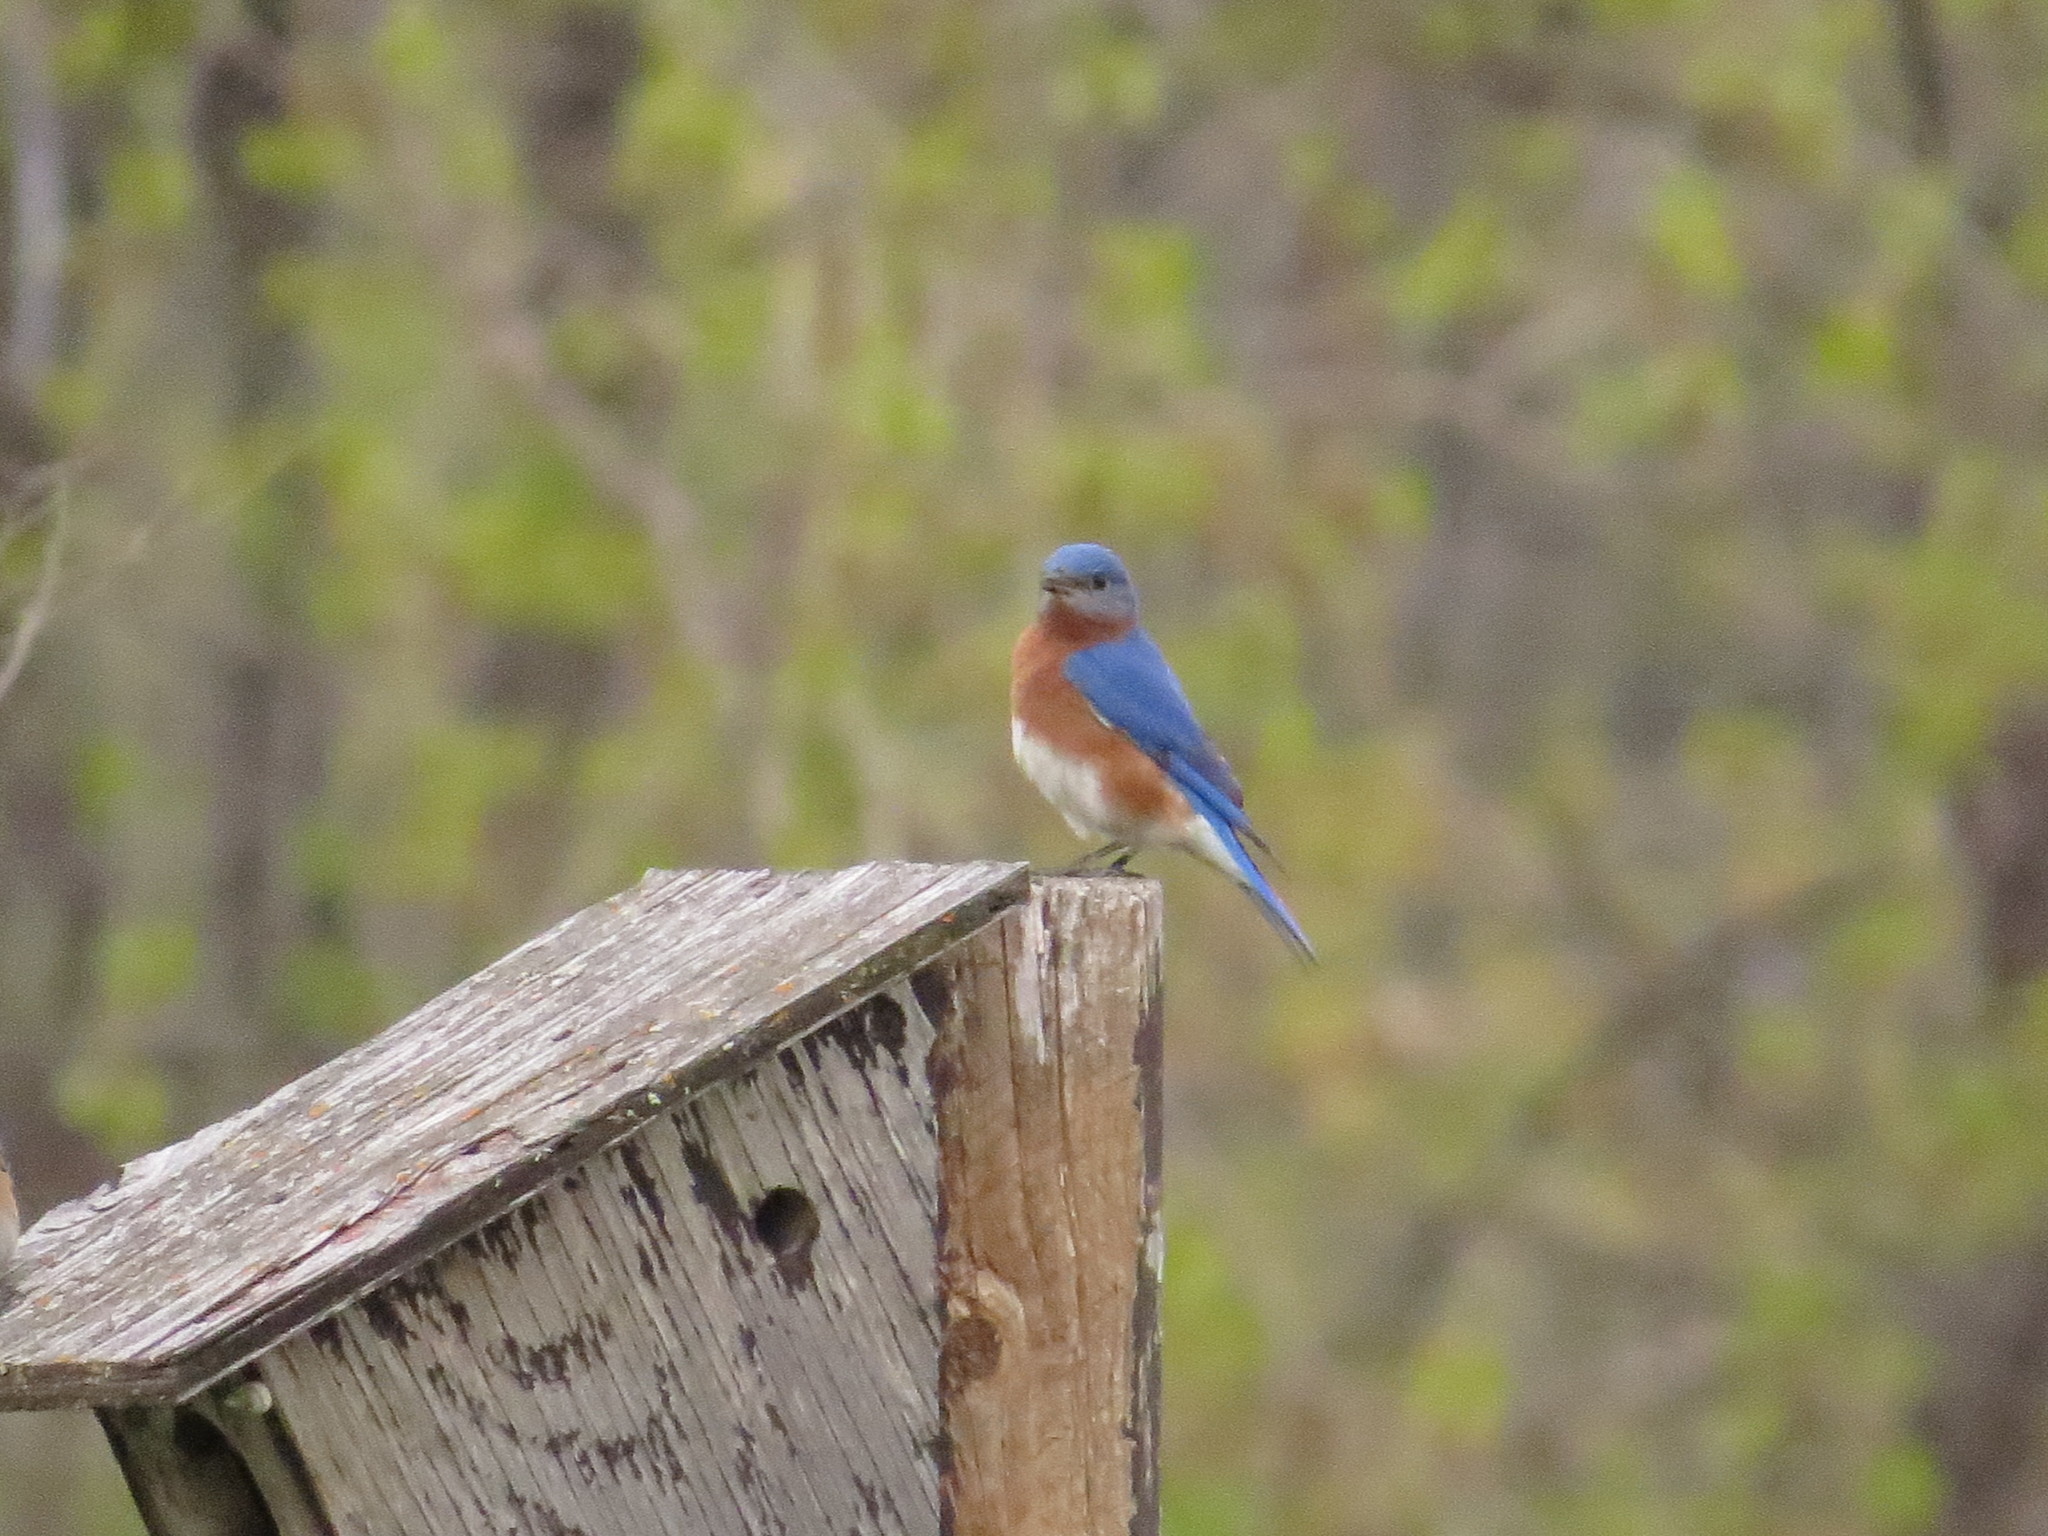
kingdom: Animalia
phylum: Chordata
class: Aves
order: Passeriformes
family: Turdidae
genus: Sialia
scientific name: Sialia sialis
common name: Eastern bluebird
